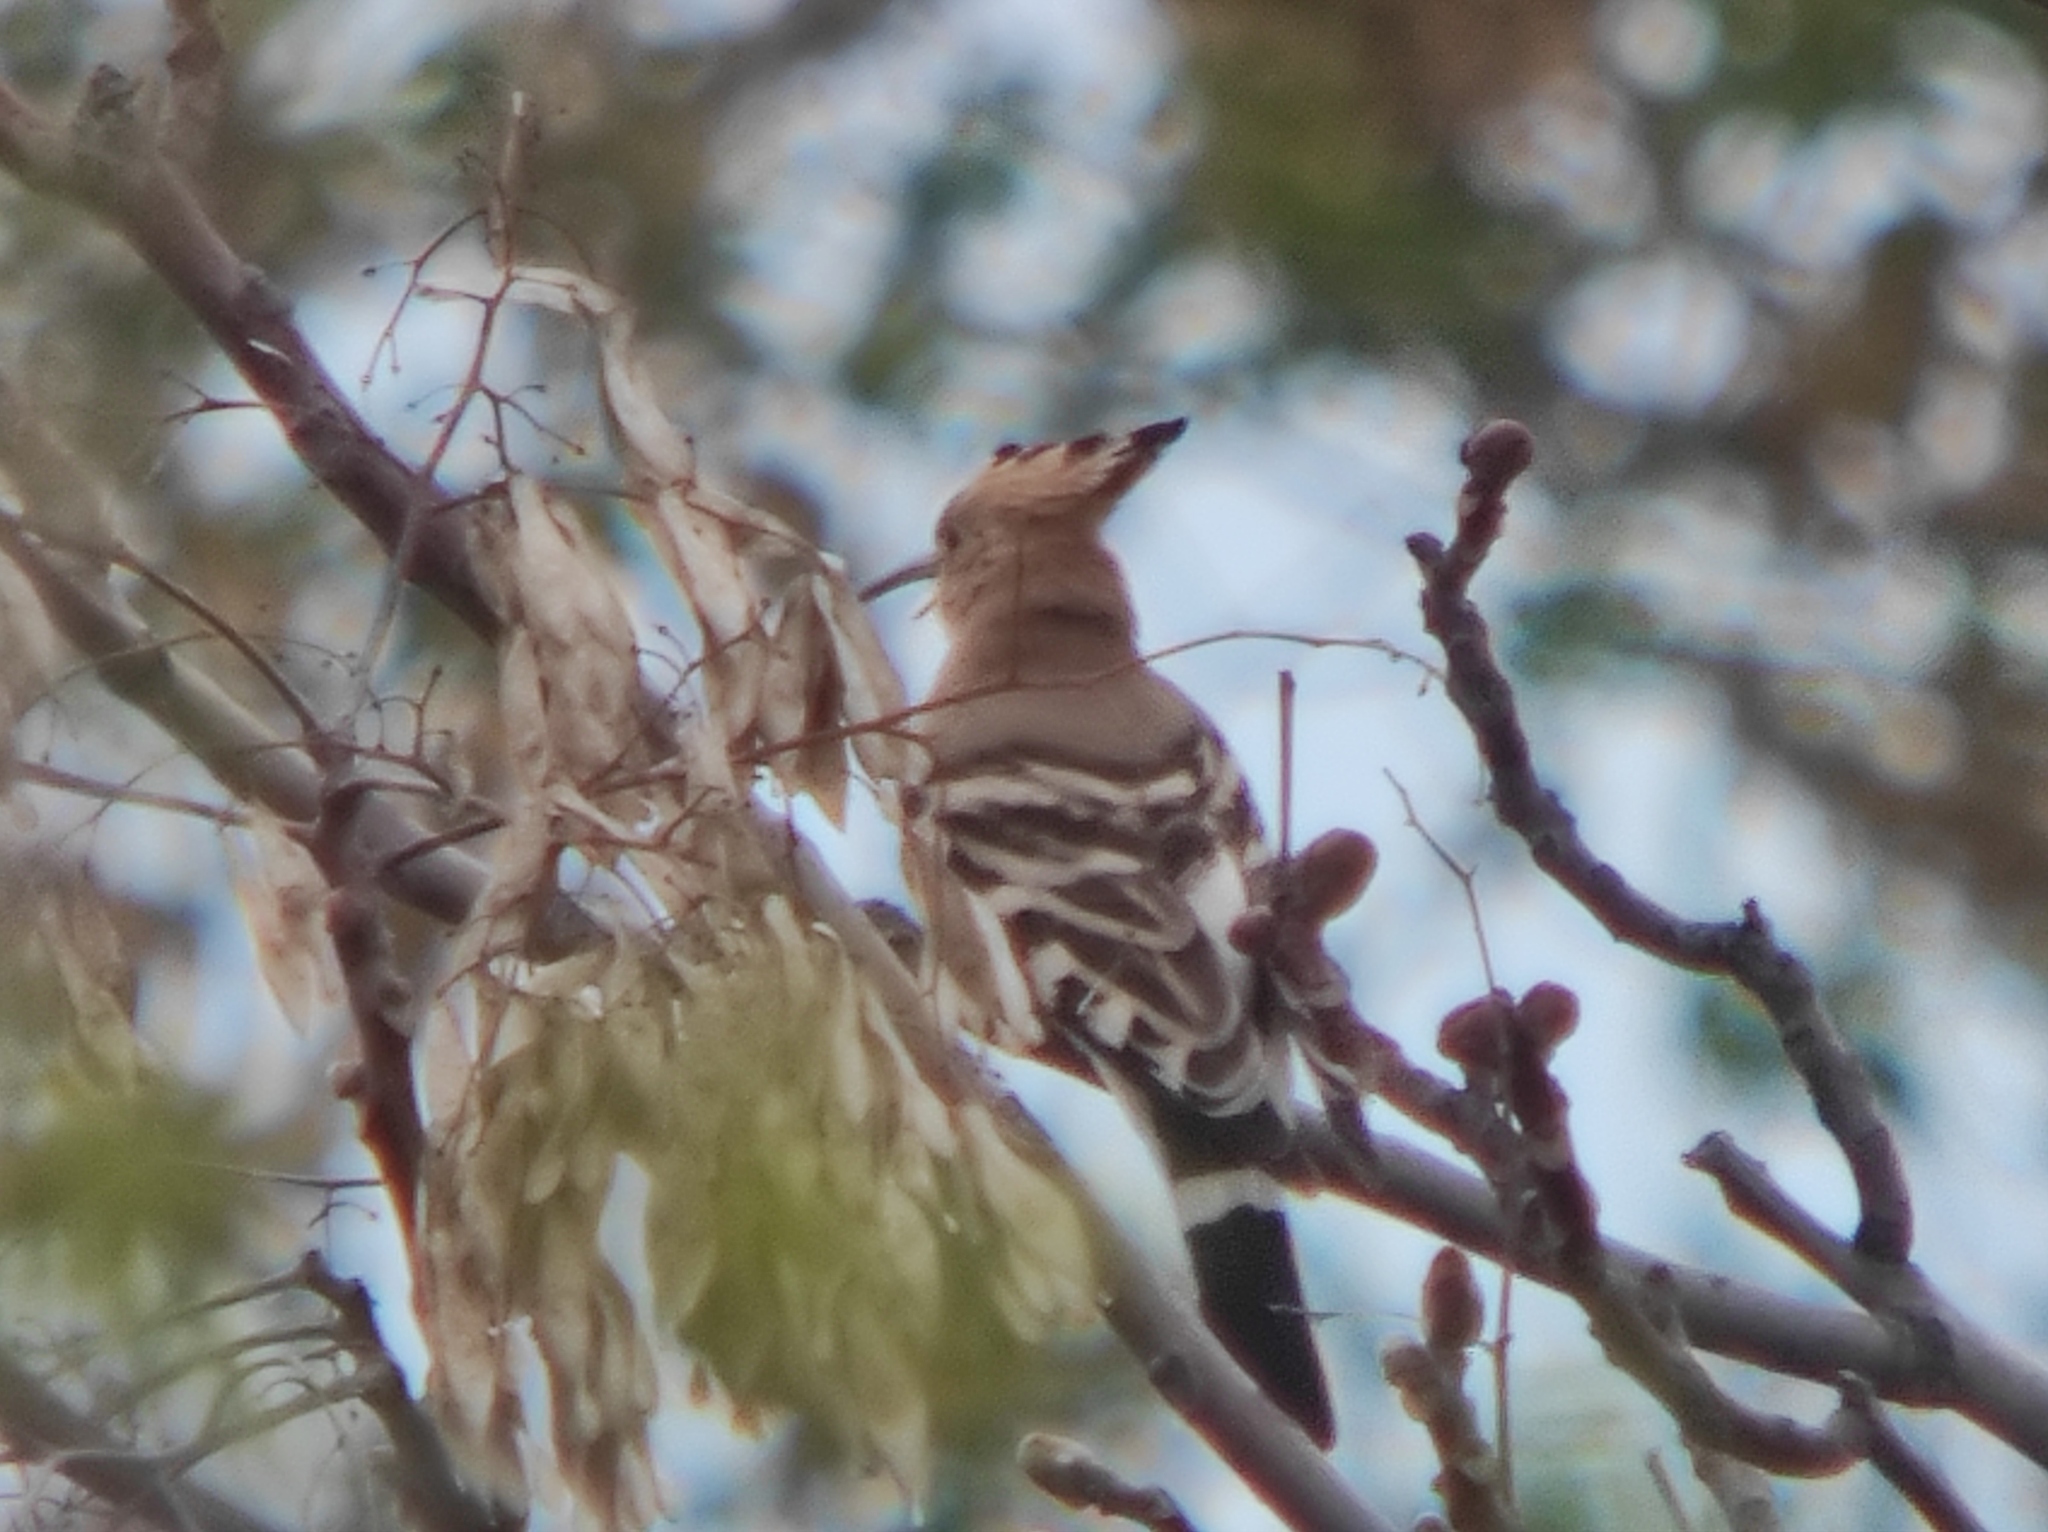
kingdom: Animalia
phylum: Chordata
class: Aves
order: Bucerotiformes
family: Upupidae
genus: Upupa
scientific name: Upupa epops
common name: Eurasian hoopoe
